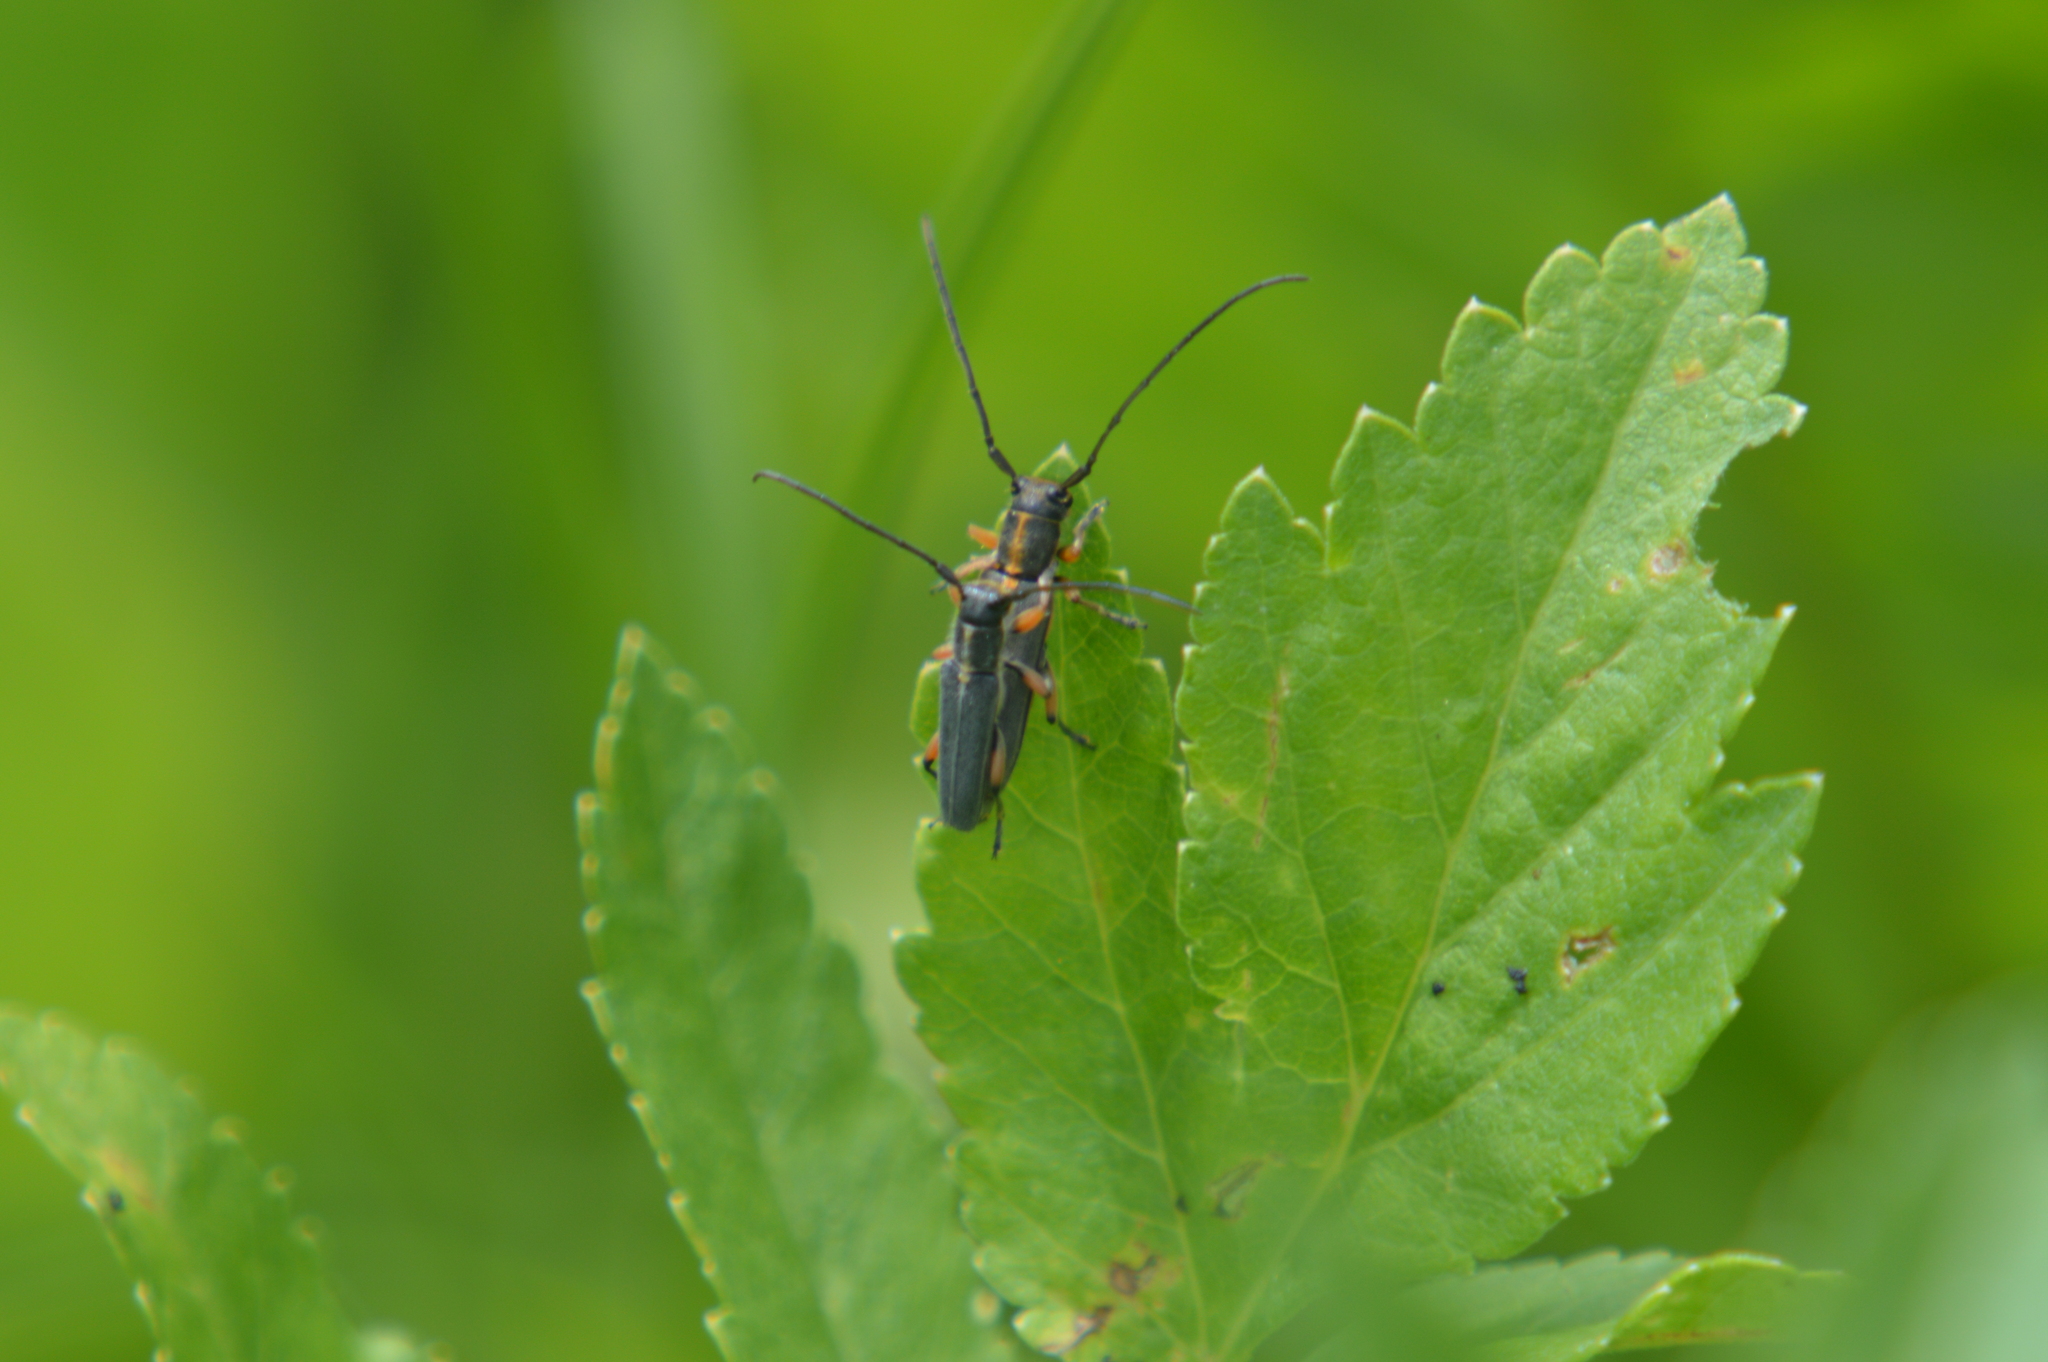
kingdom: Animalia
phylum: Arthropoda
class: Insecta
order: Coleoptera
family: Cerambycidae
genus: Phytoecia
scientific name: Phytoecia icterica
